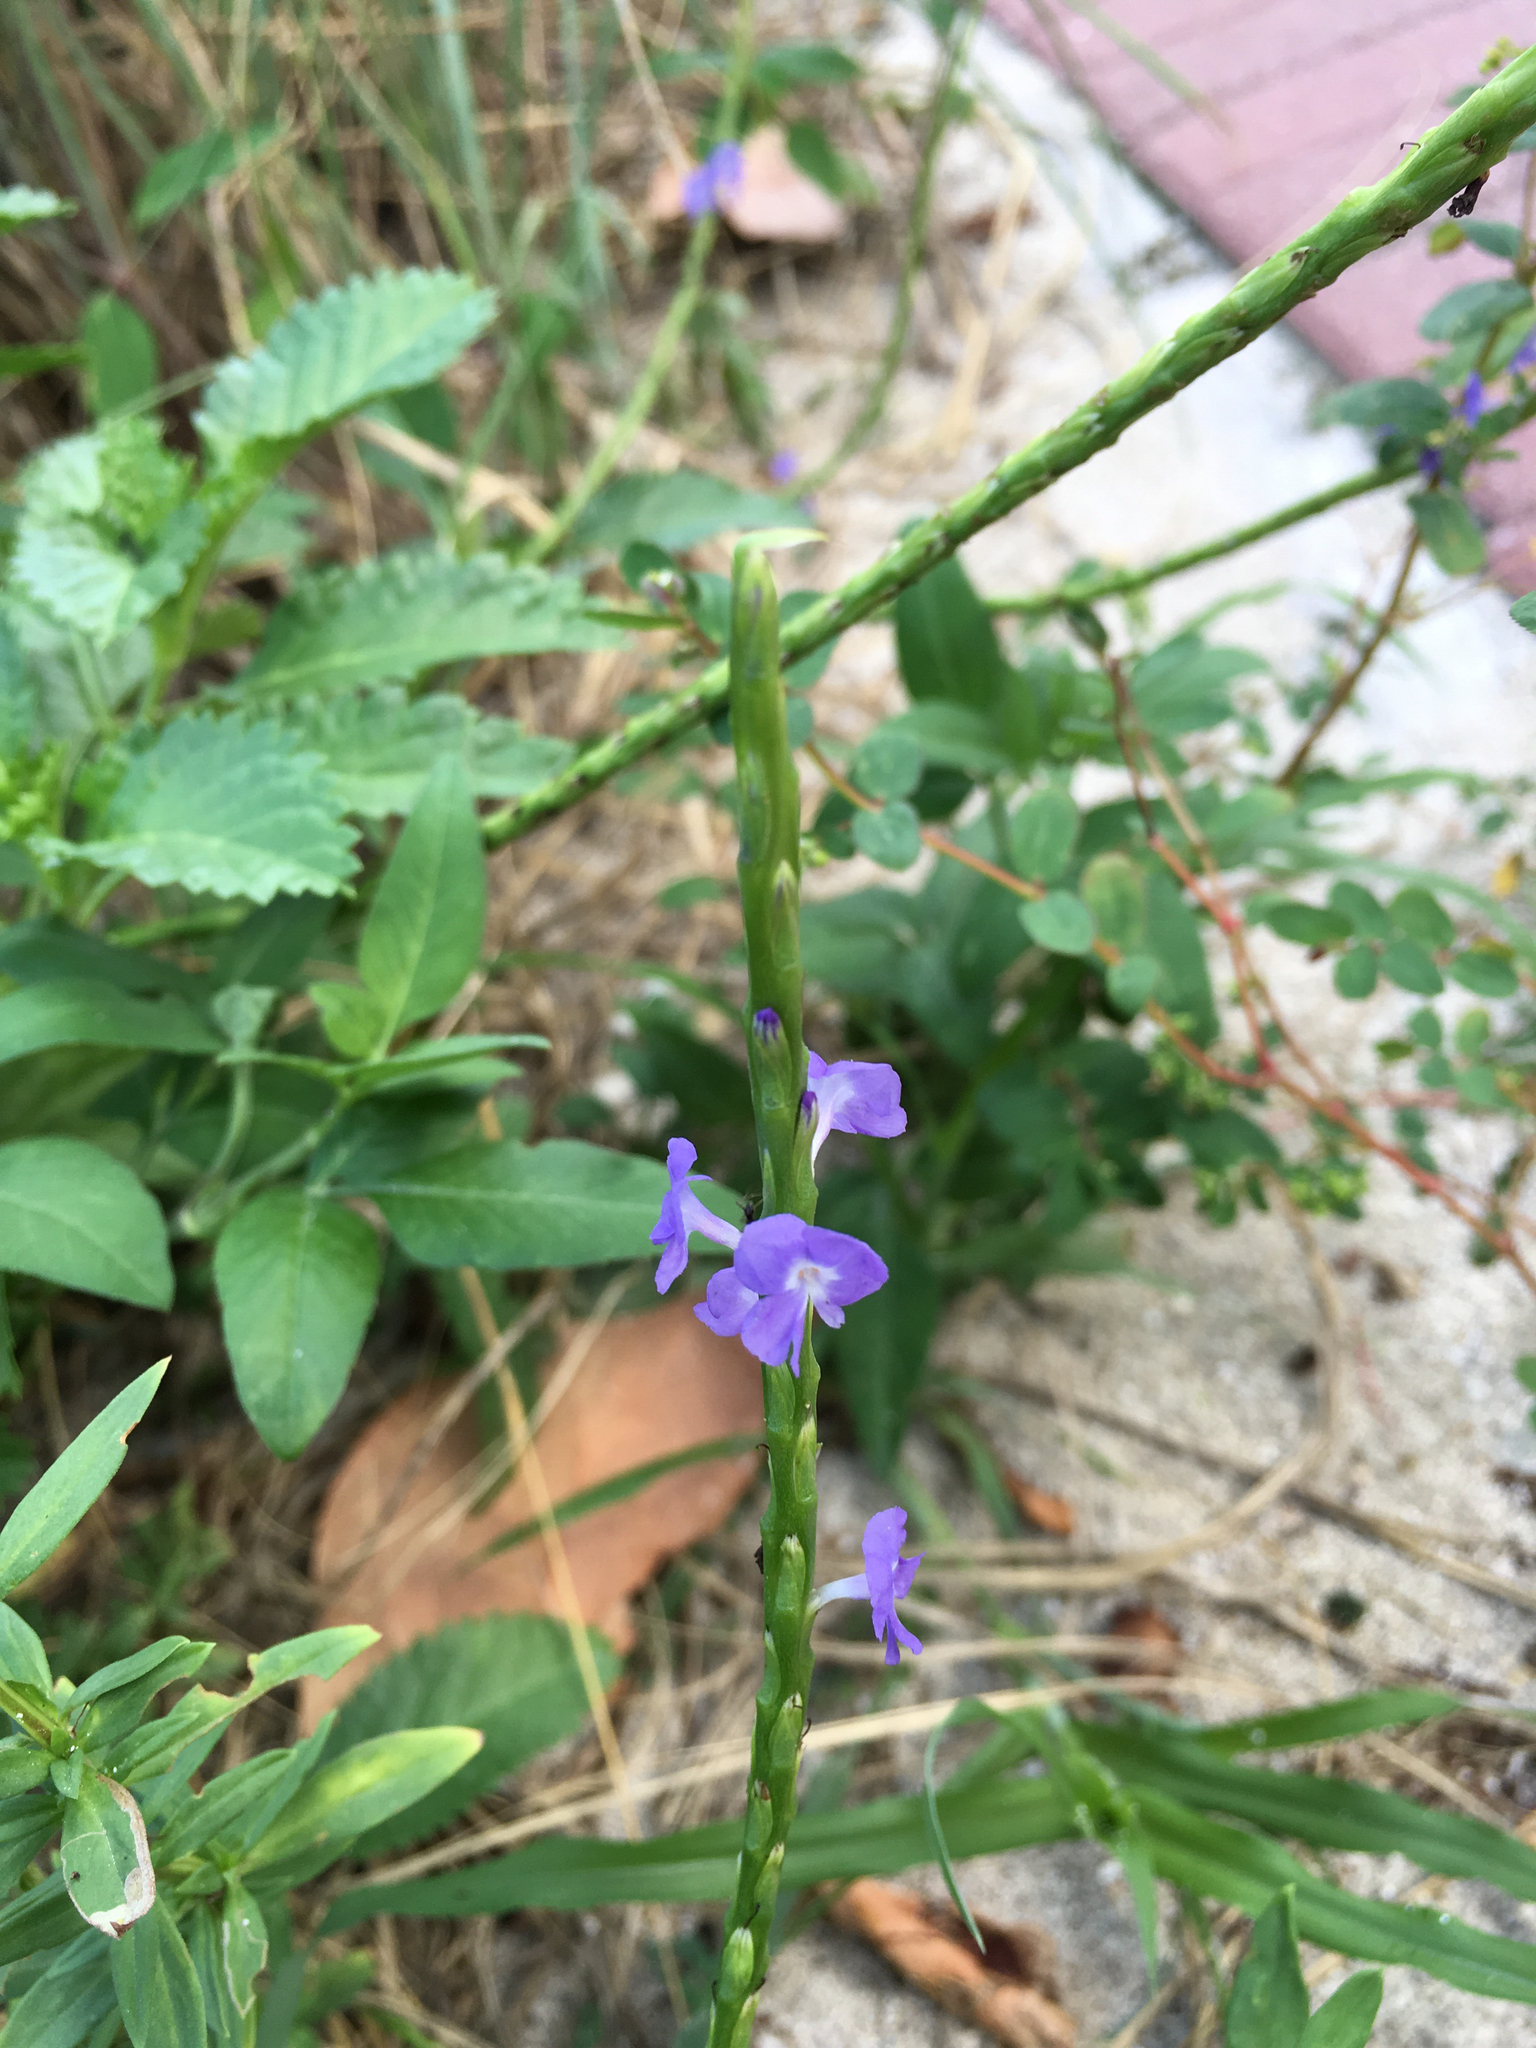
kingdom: Plantae
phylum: Tracheophyta
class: Magnoliopsida
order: Lamiales
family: Verbenaceae
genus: Stachytarpheta
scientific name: Stachytarpheta jamaicensis
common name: Light-blue snakeweed
